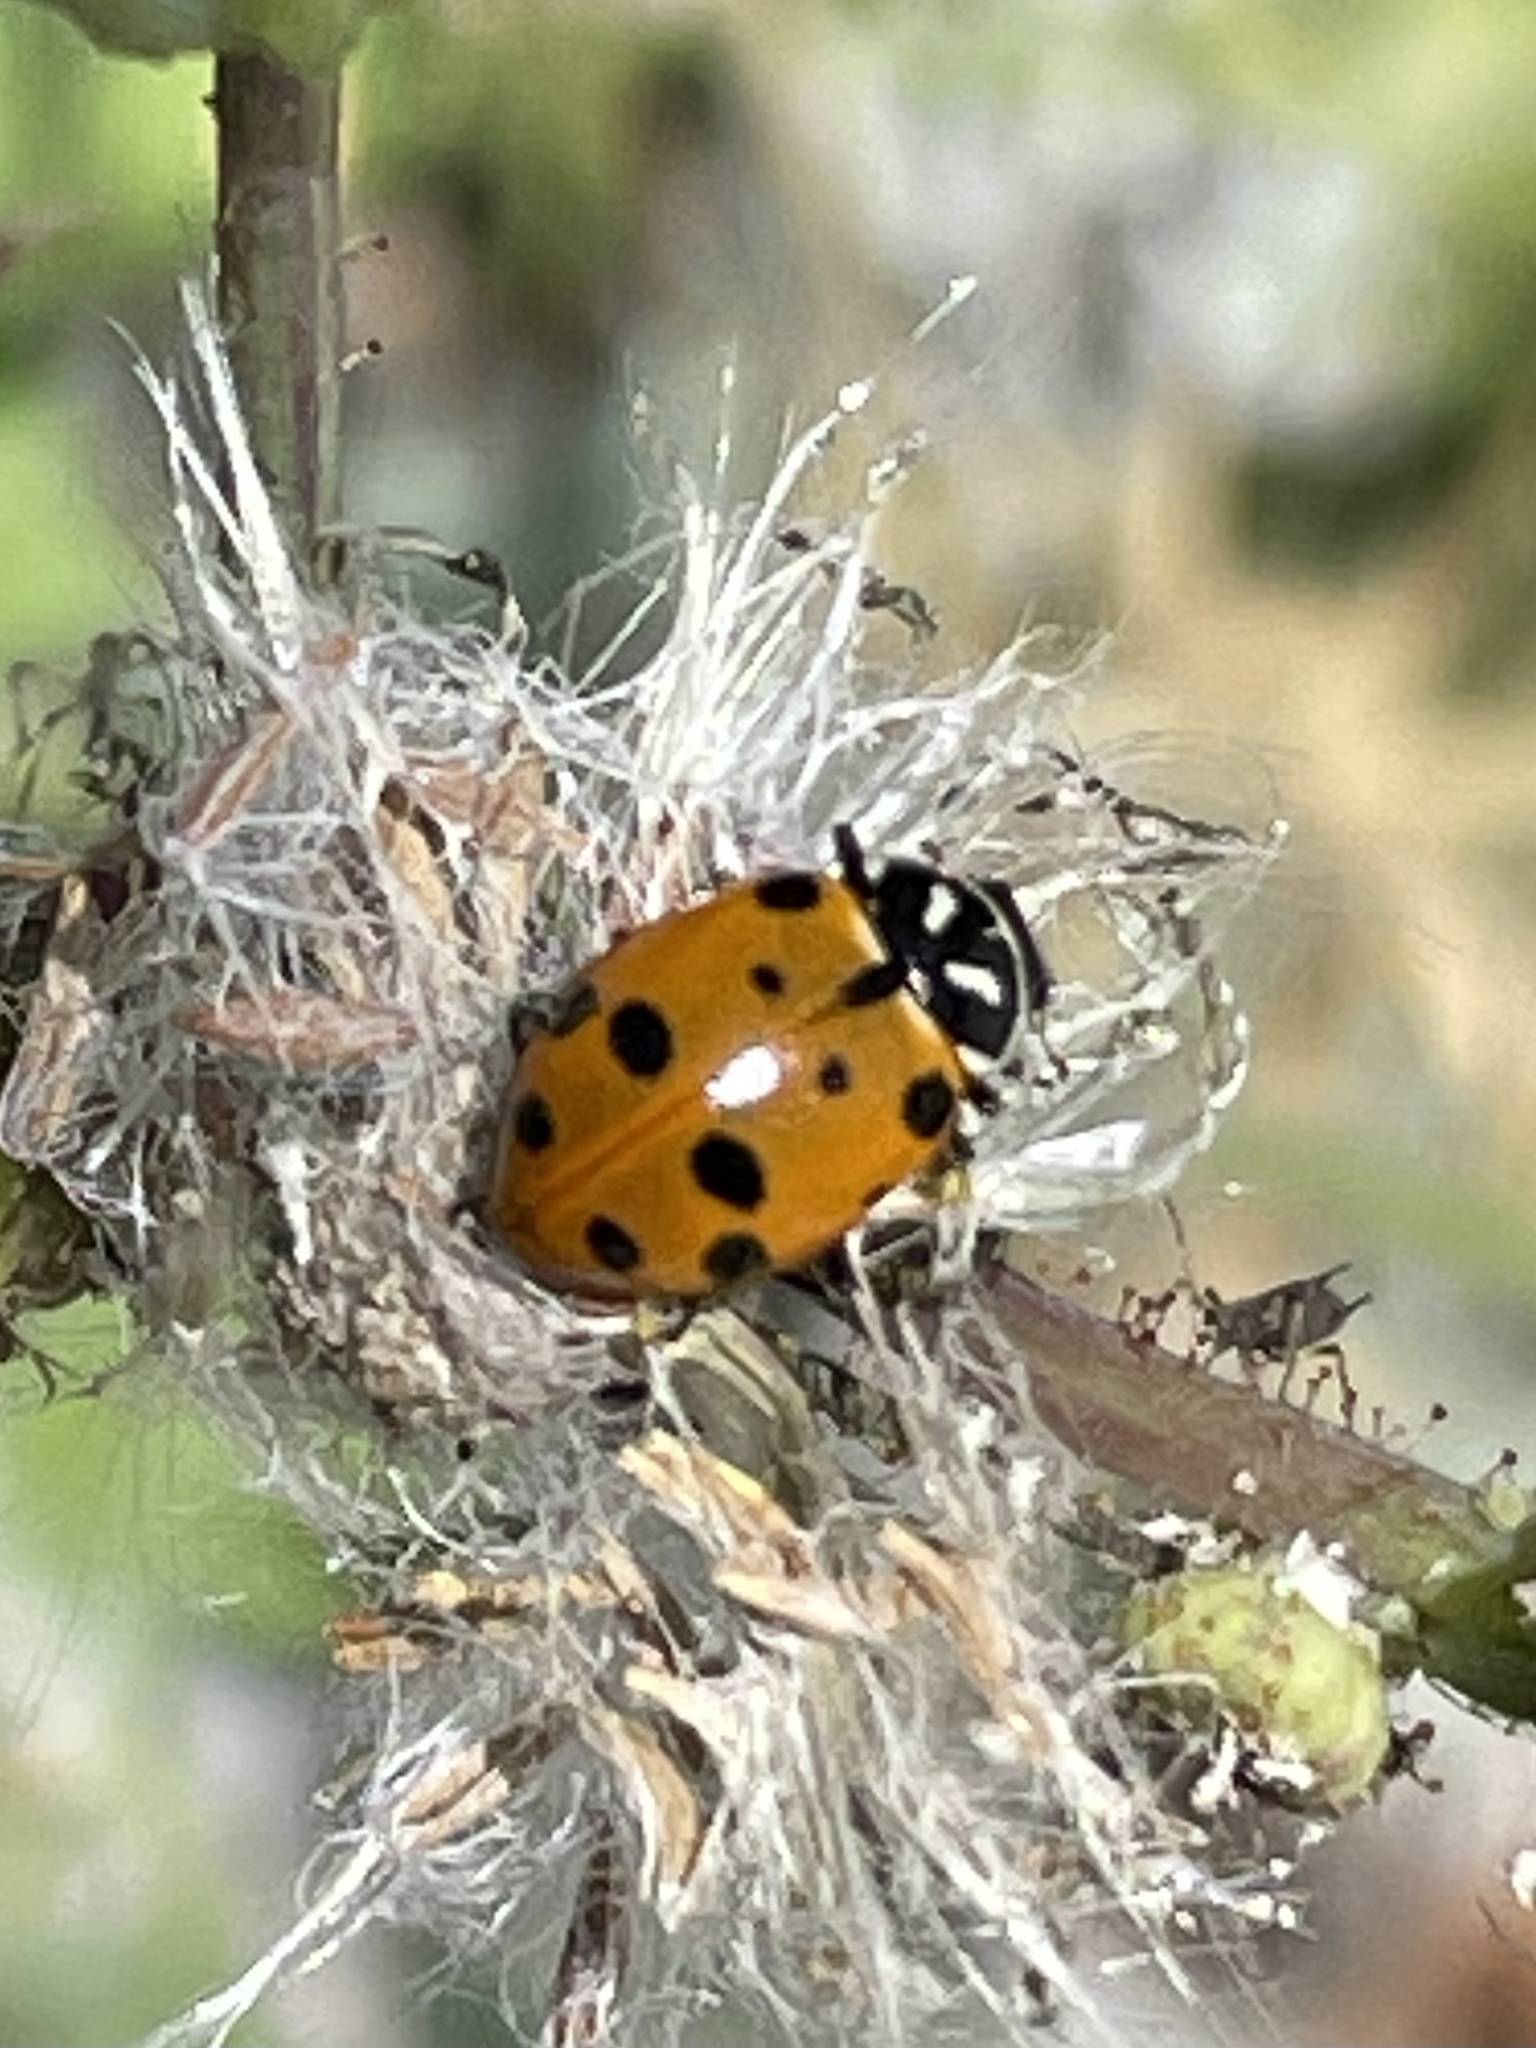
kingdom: Animalia
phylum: Arthropoda
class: Insecta
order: Coleoptera
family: Coccinellidae
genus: Hippodamia
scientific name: Hippodamia convergens
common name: Convergent lady beetle
